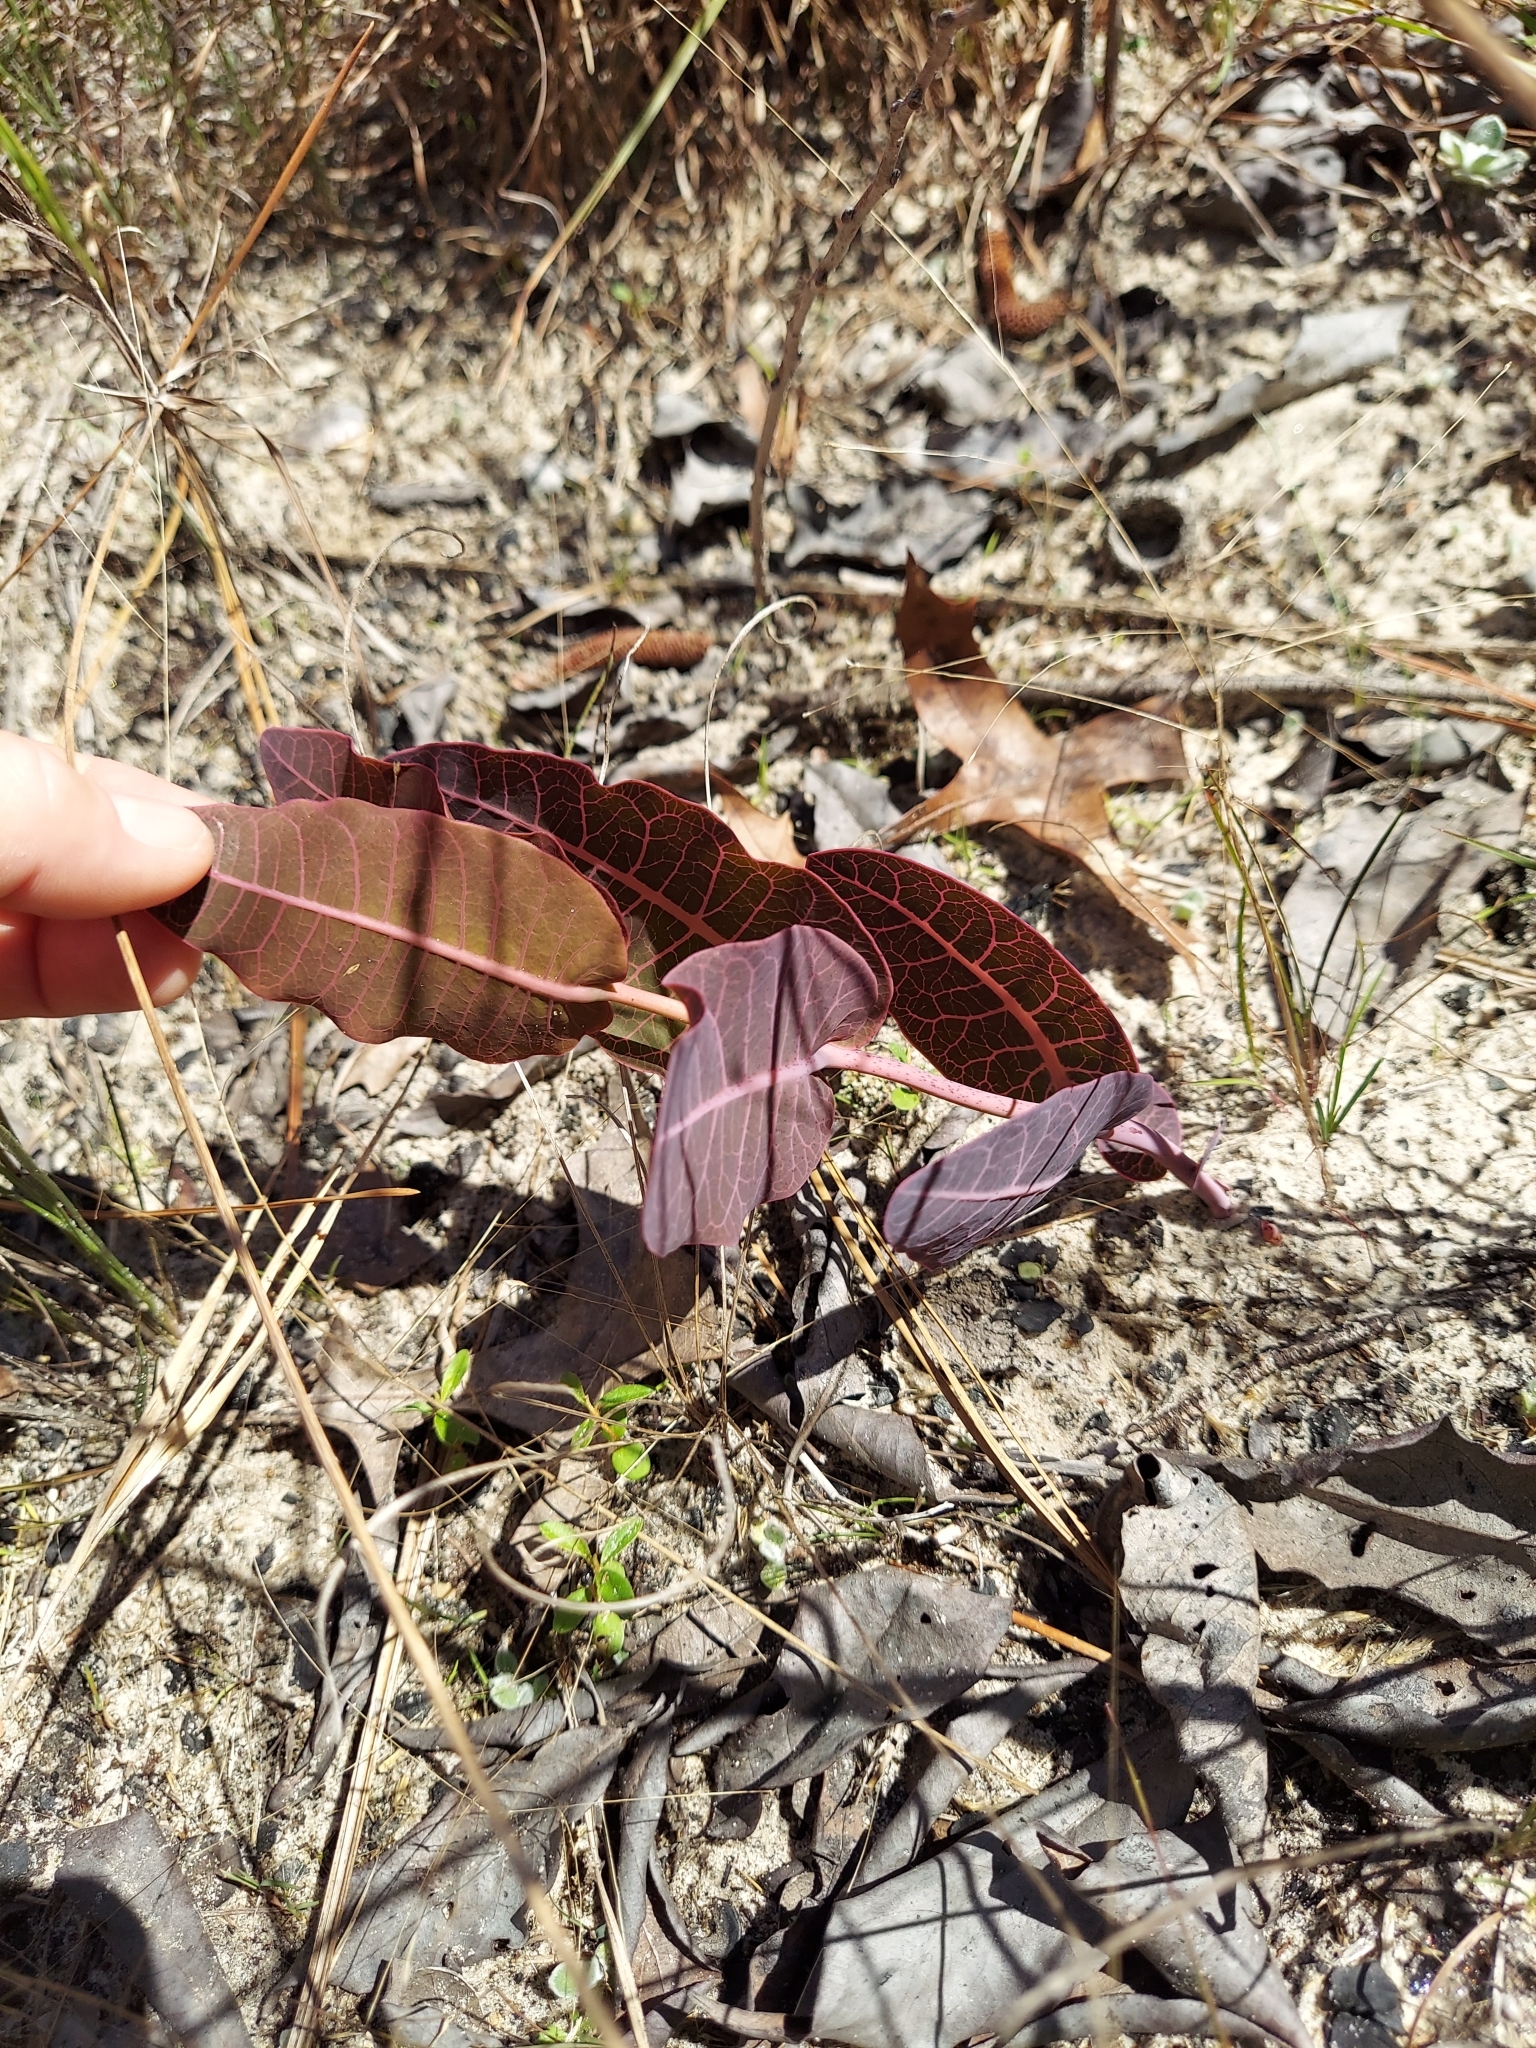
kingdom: Plantae
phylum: Tracheophyta
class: Magnoliopsida
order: Gentianales
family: Apocynaceae
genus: Asclepias
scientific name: Asclepias humistrata
